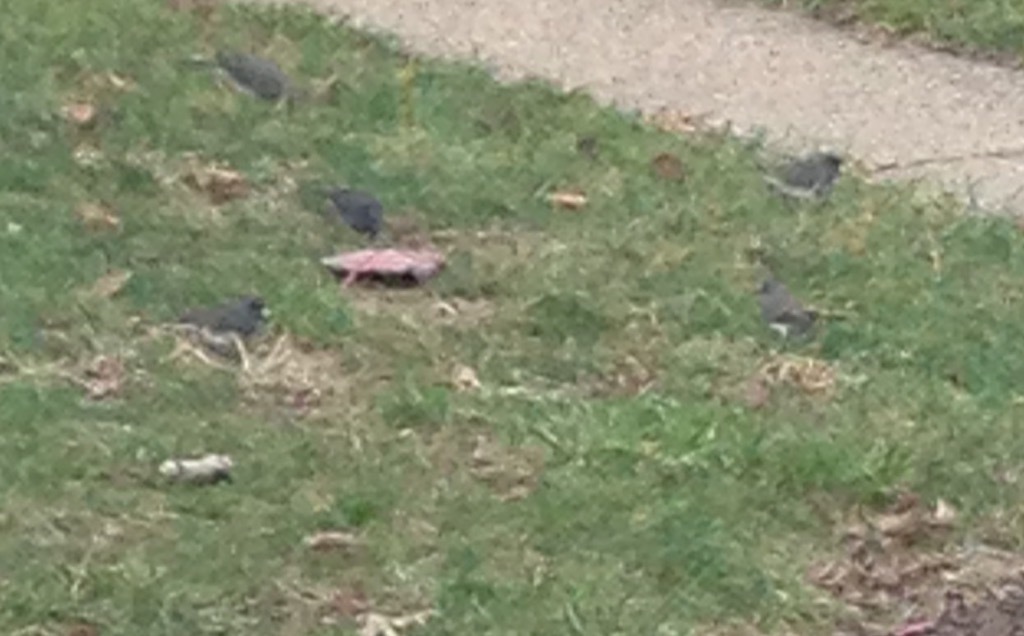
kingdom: Animalia
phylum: Chordata
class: Aves
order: Passeriformes
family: Passerellidae
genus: Junco
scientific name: Junco hyemalis
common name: Dark-eyed junco
